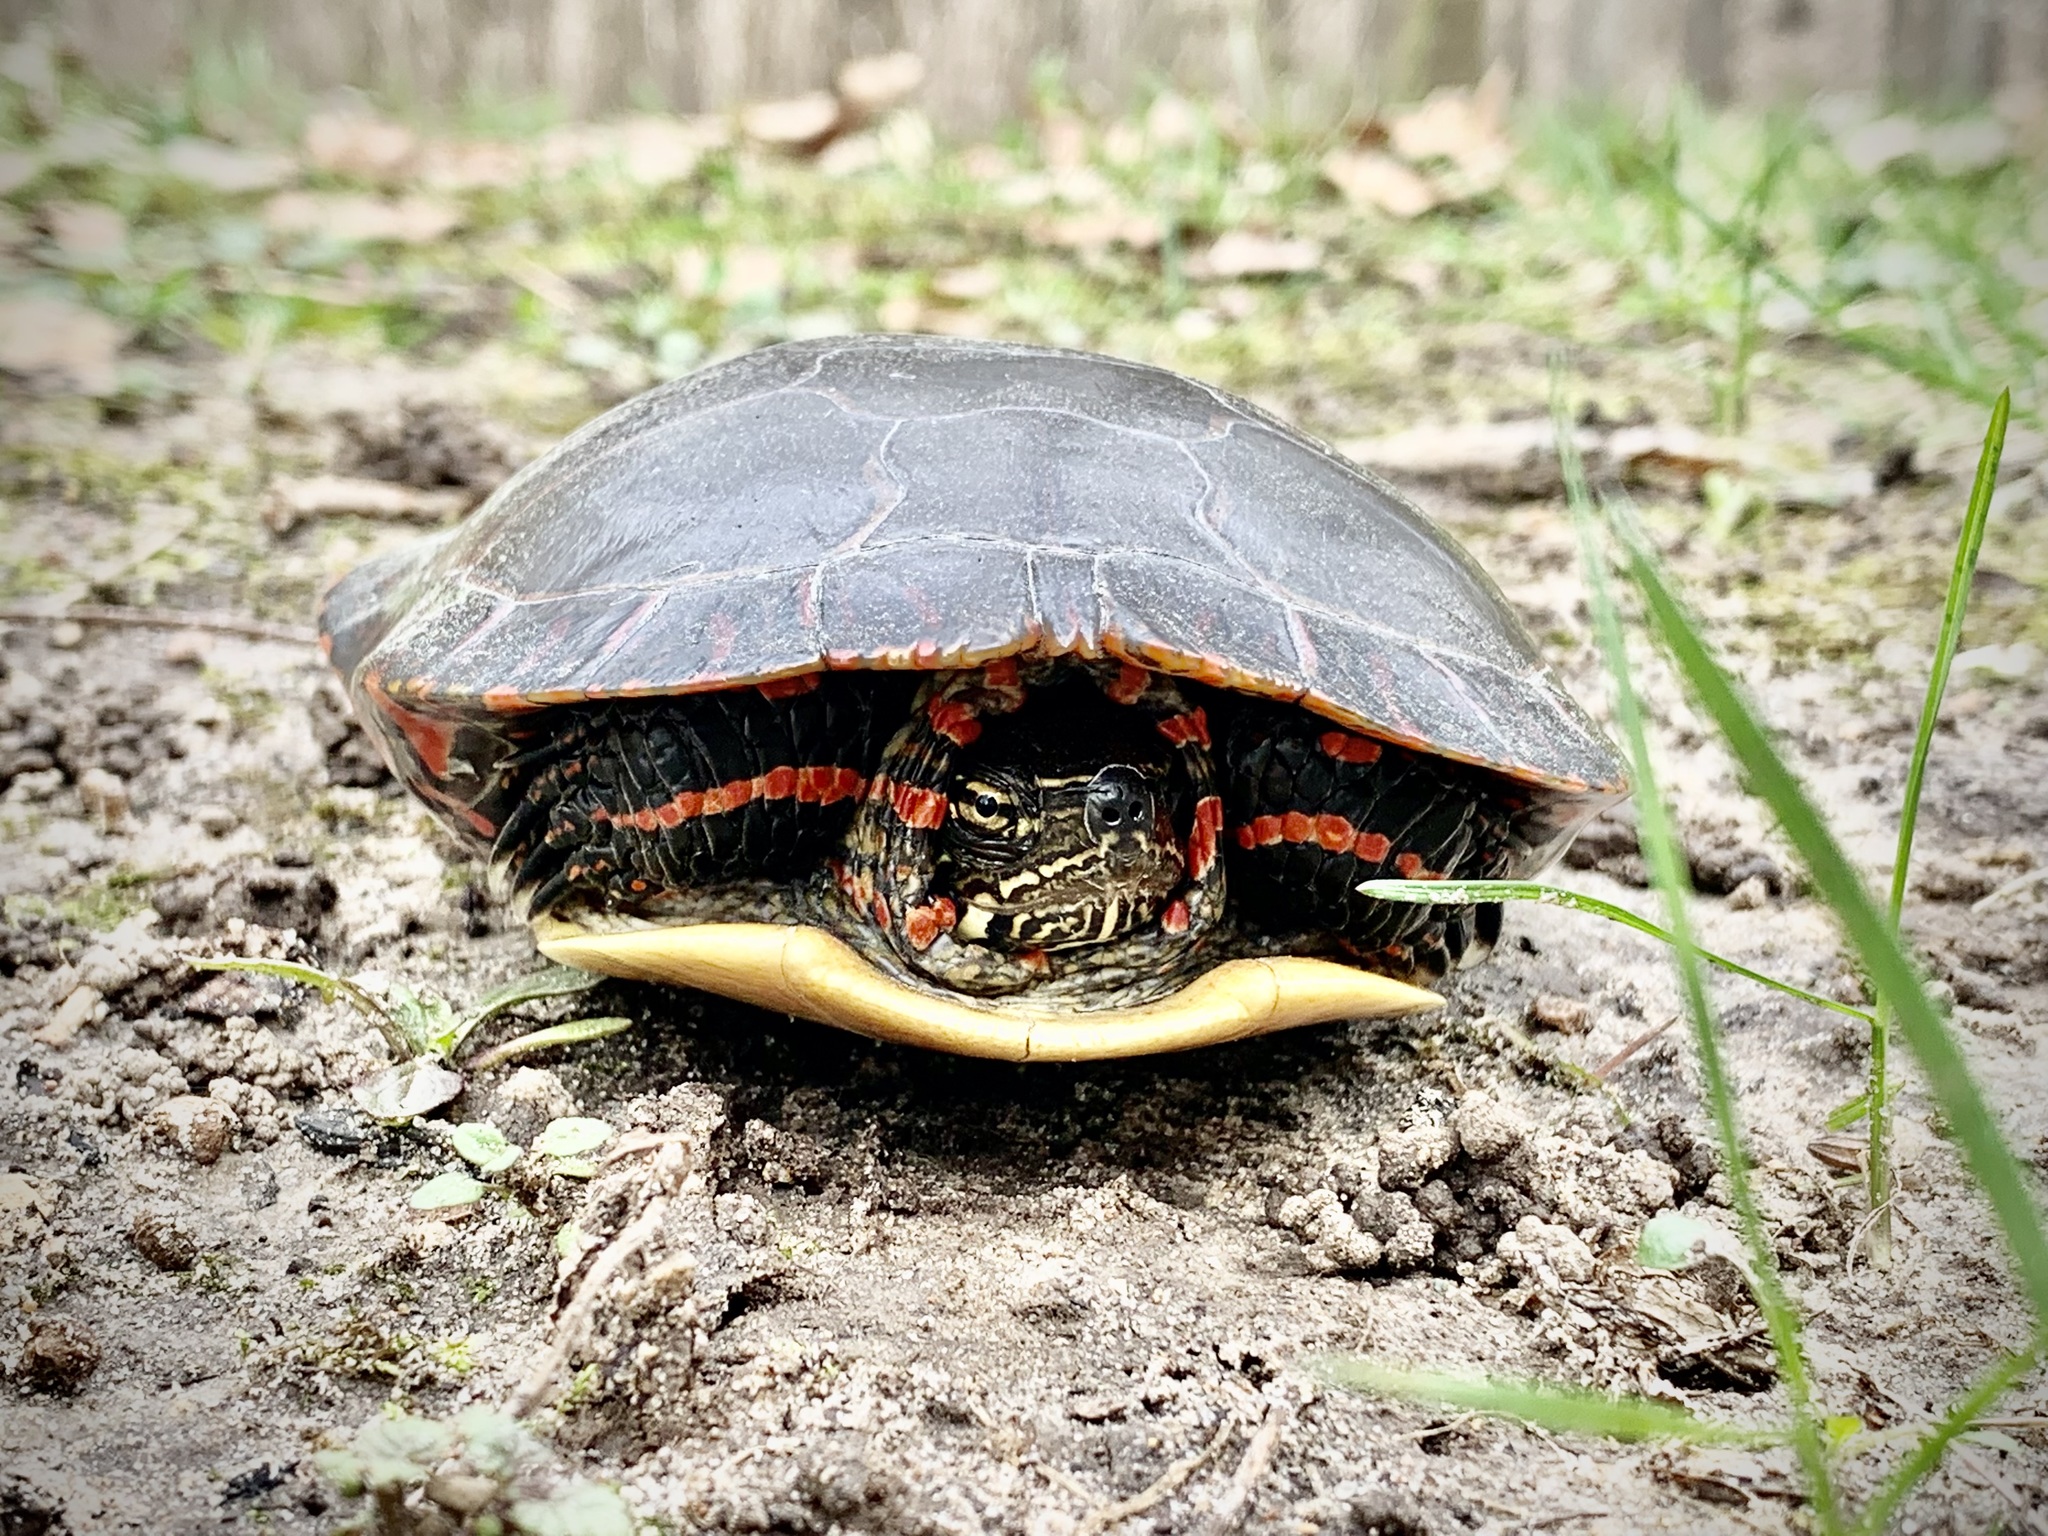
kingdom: Animalia
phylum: Chordata
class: Testudines
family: Emydidae
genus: Chrysemys
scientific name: Chrysemys picta
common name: Painted turtle
